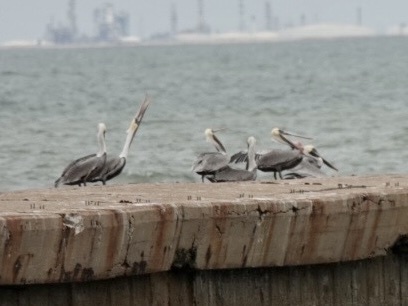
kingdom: Animalia
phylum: Chordata
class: Aves
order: Pelecaniformes
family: Pelecanidae
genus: Pelecanus
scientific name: Pelecanus occidentalis
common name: Brown pelican
